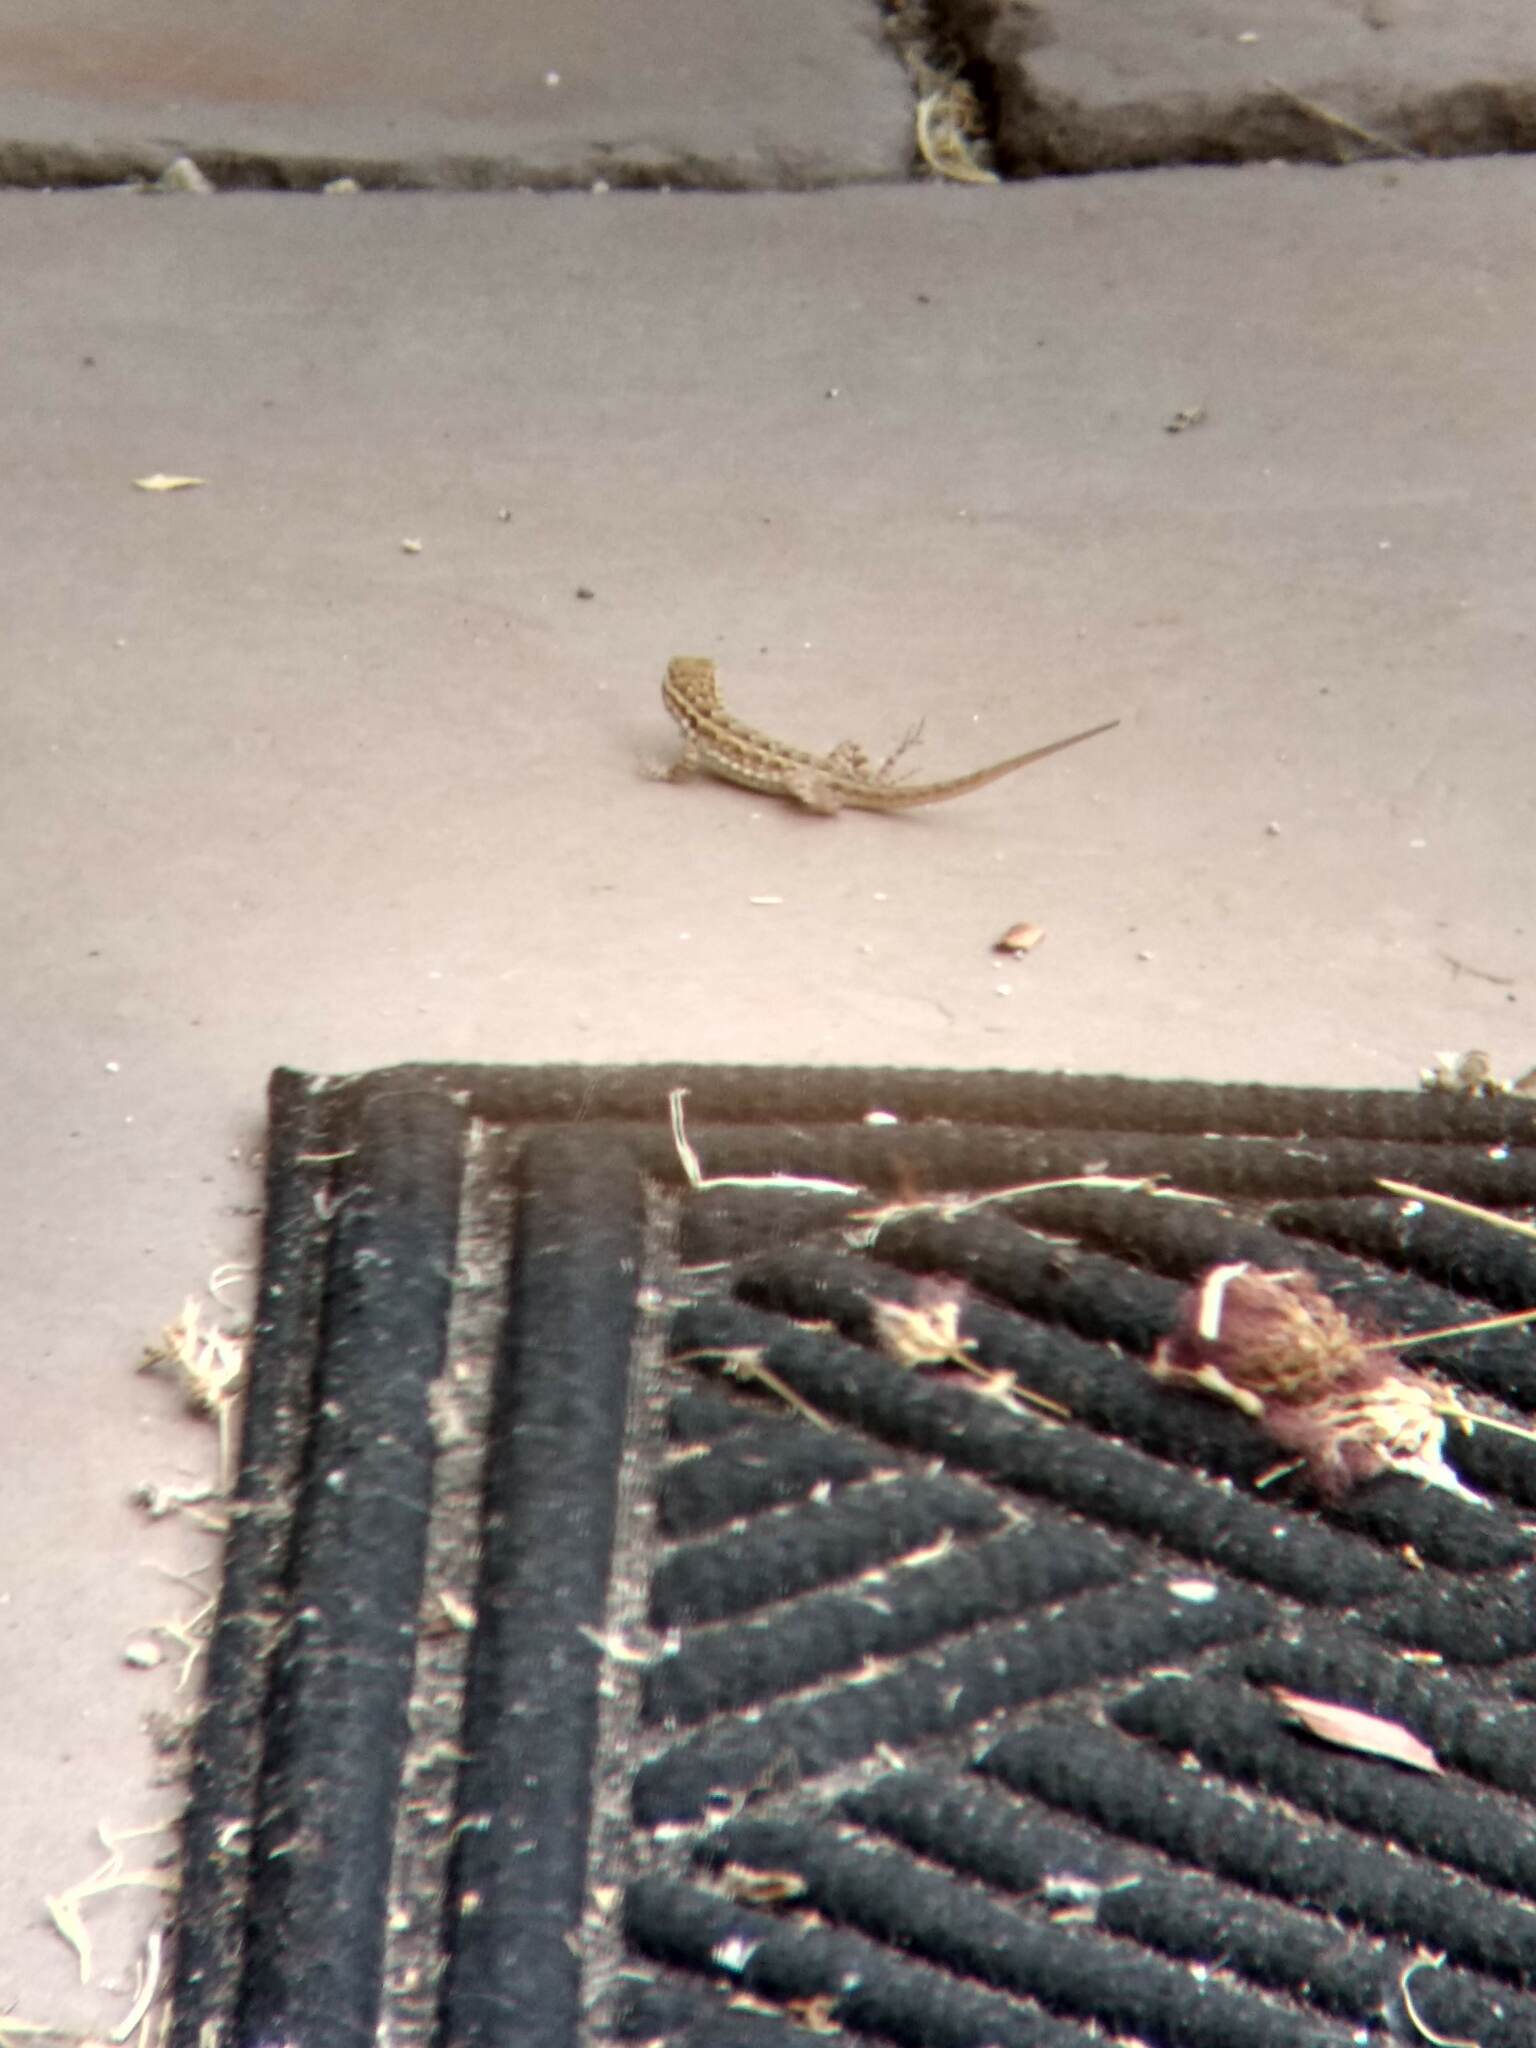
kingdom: Animalia
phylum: Chordata
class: Squamata
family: Phrynosomatidae
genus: Uta
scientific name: Uta stansburiana
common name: Side-blotched lizard
